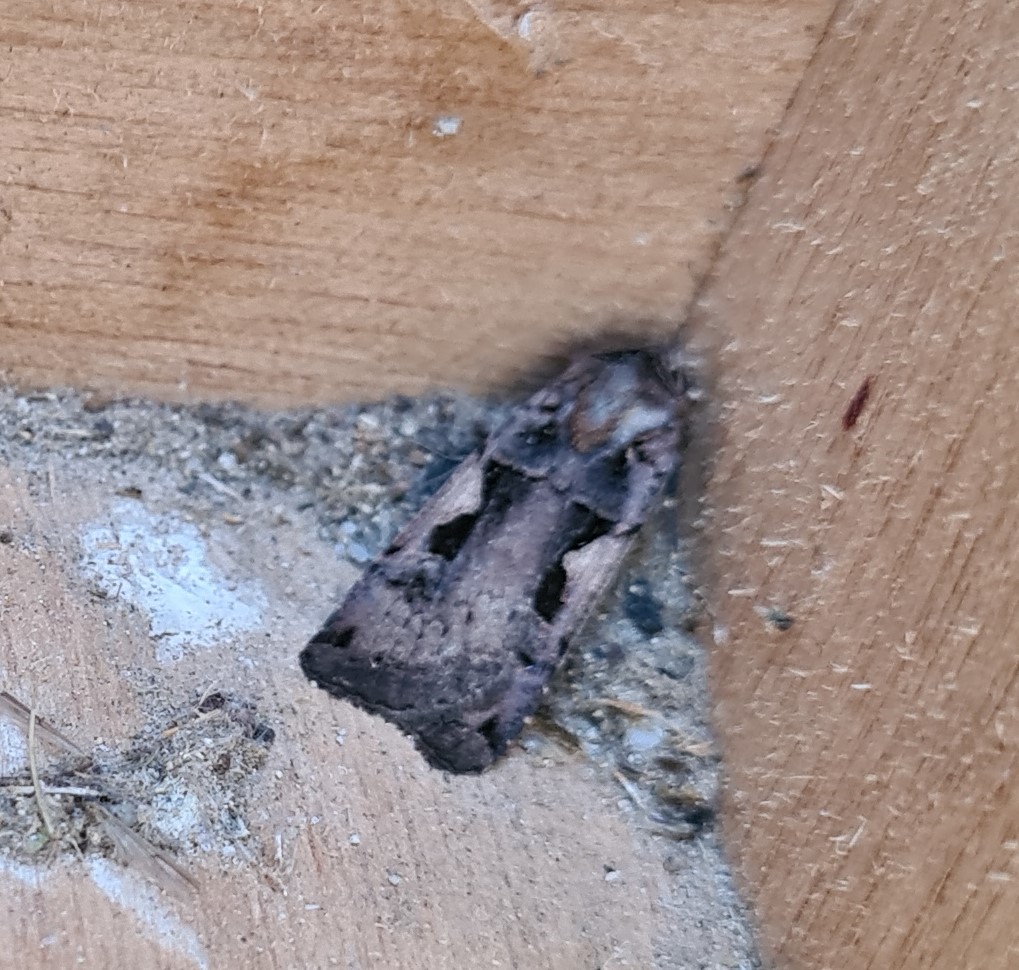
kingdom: Animalia
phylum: Arthropoda
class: Insecta
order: Lepidoptera
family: Noctuidae
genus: Xestia
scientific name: Xestia c-nigrum
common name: Setaceous hebrew character
